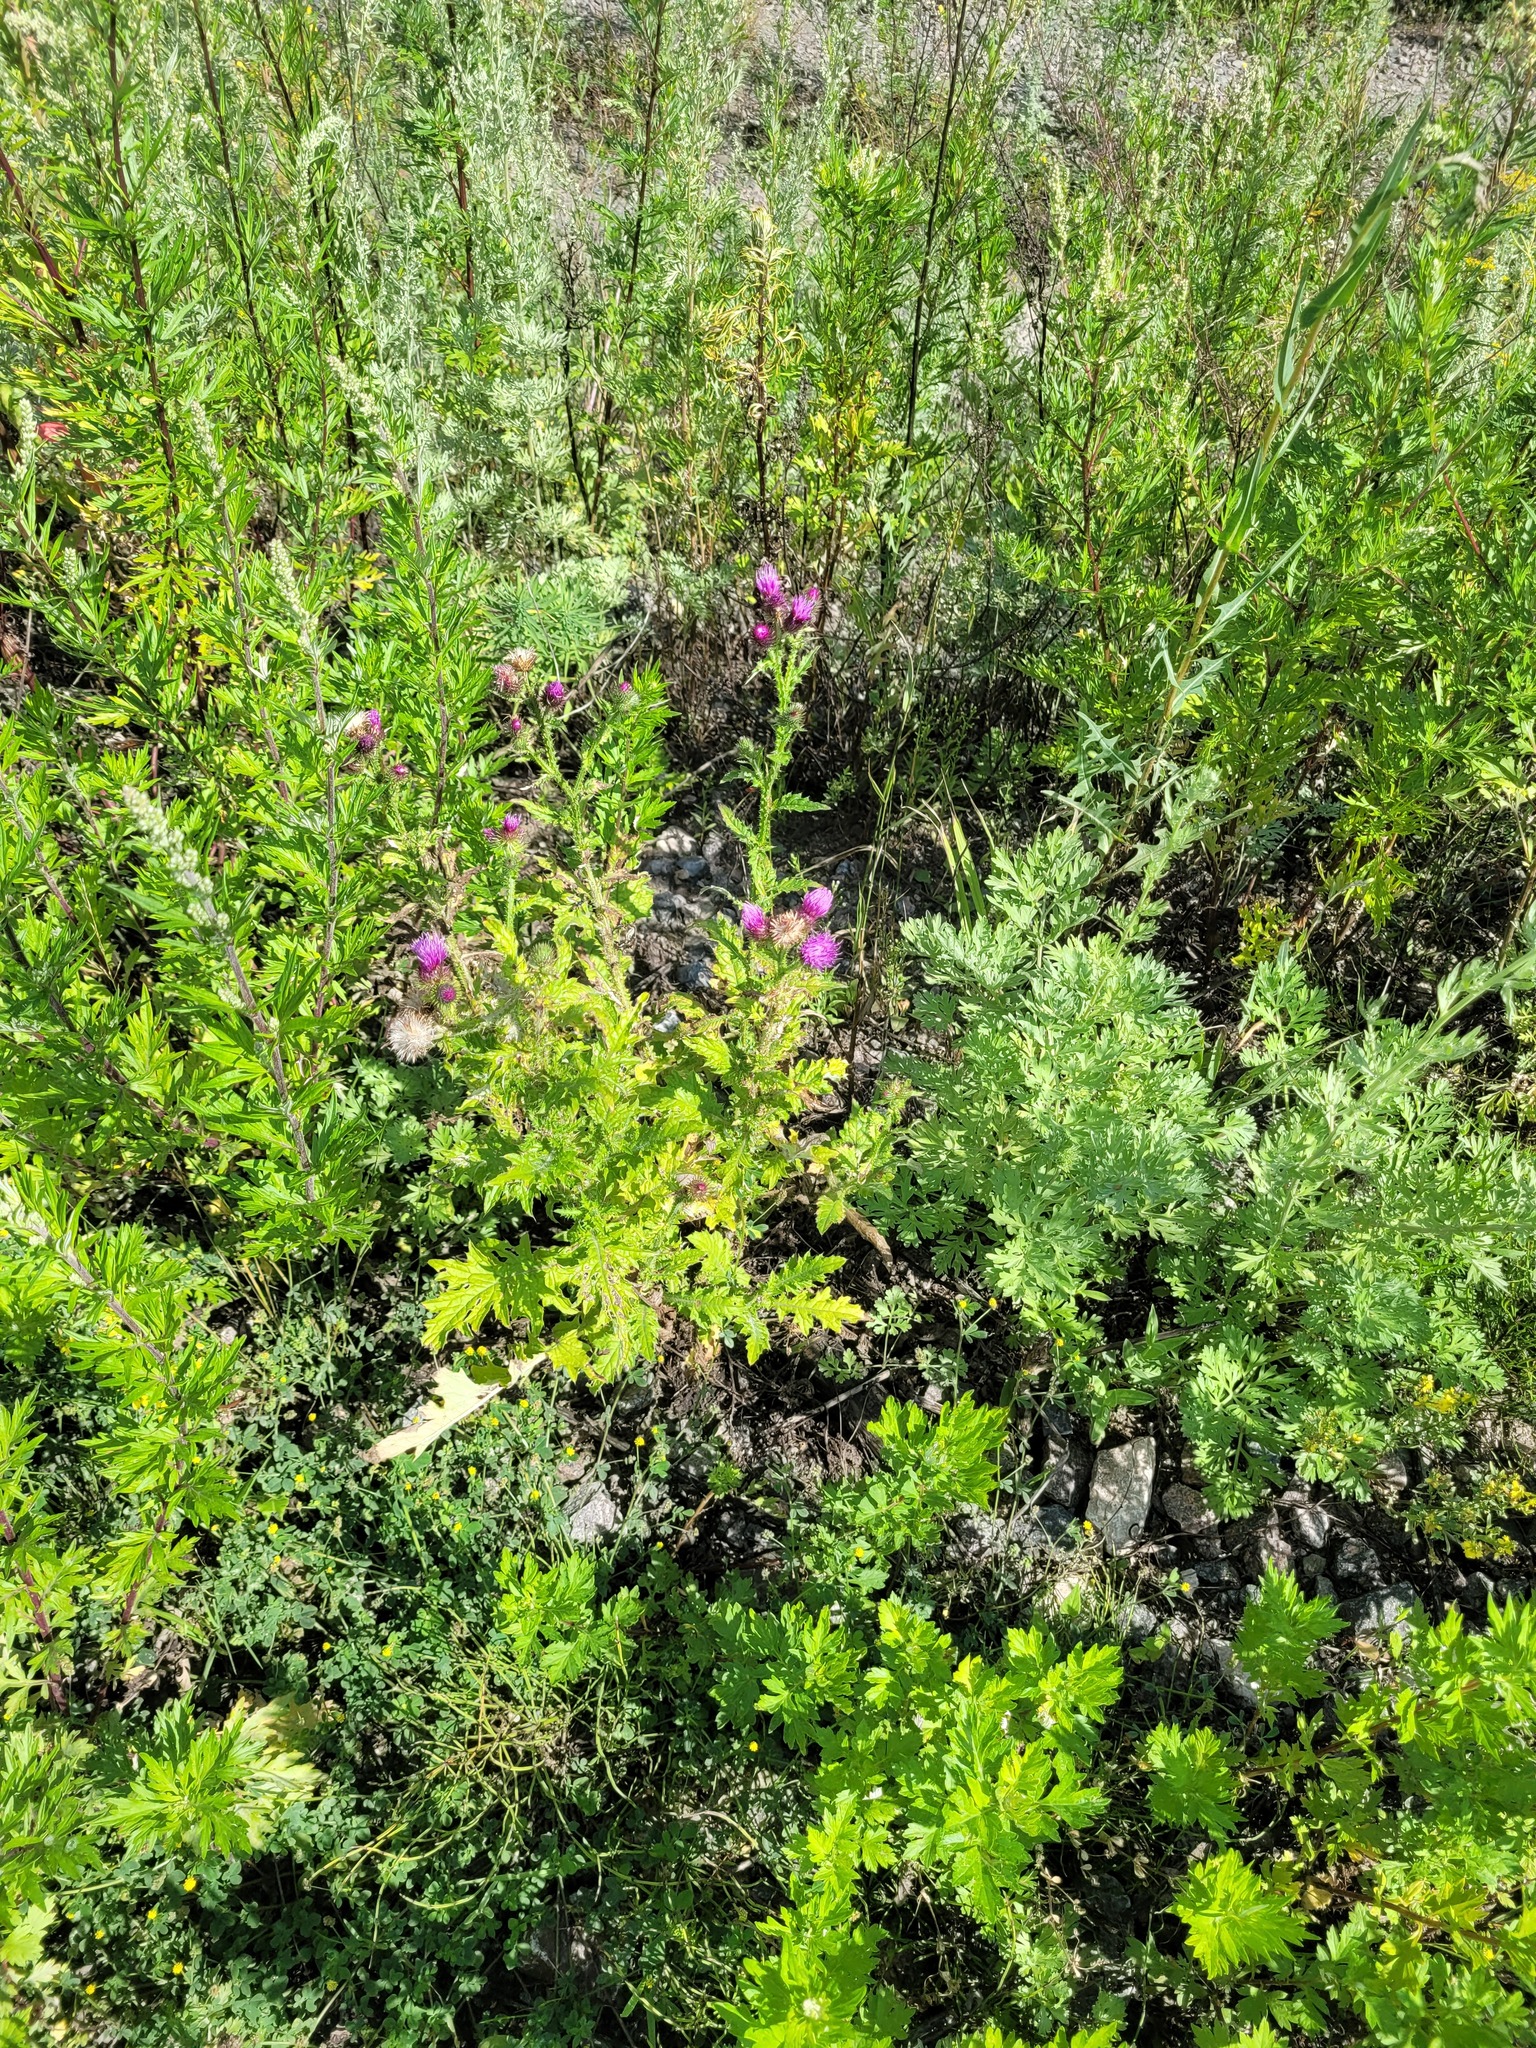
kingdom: Plantae
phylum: Tracheophyta
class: Magnoliopsida
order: Asterales
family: Asteraceae
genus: Carduus
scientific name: Carduus crispus
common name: Welted thistle
